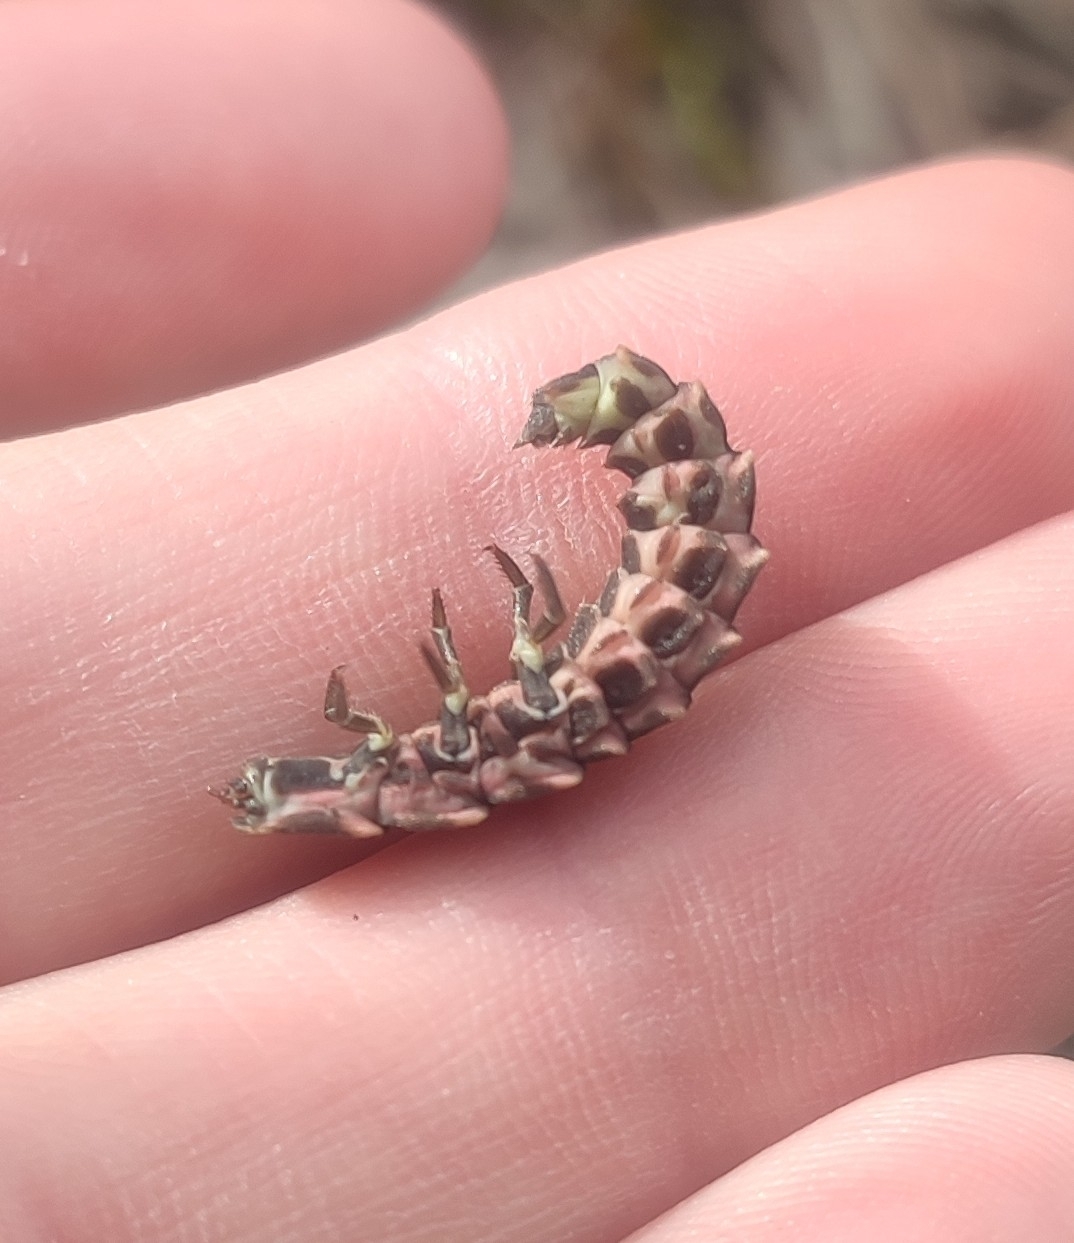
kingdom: Animalia
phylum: Arthropoda
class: Insecta
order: Coleoptera
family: Lampyridae
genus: Lampyris
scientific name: Lampyris raymondi
